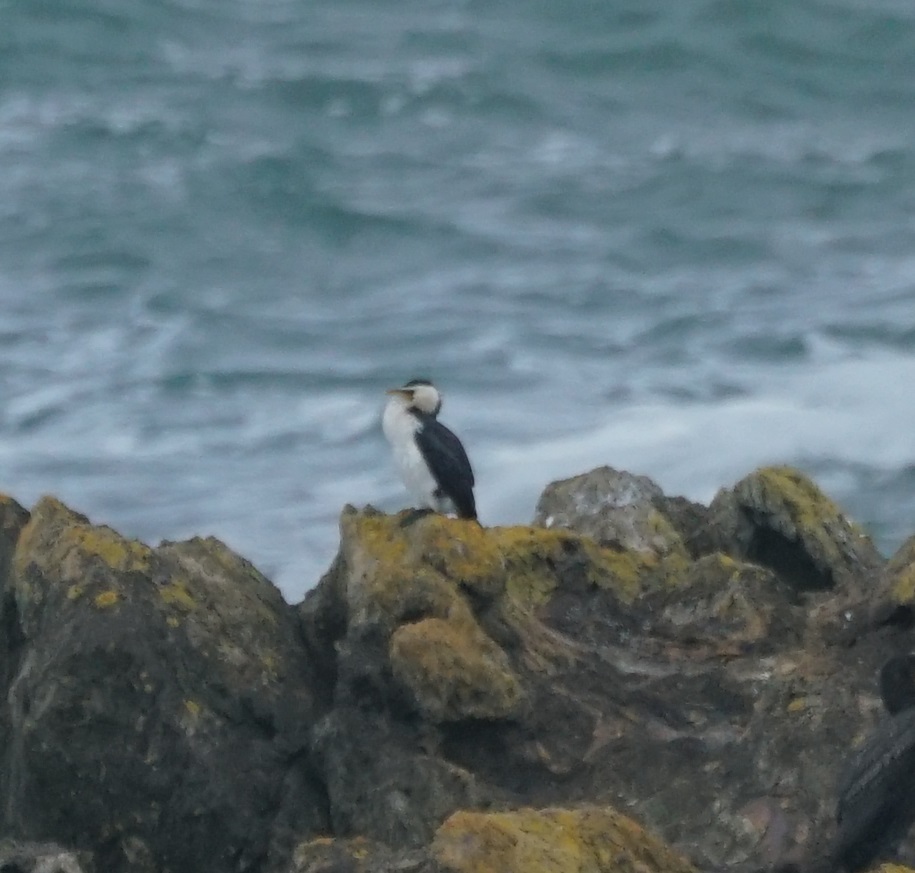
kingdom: Animalia
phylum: Chordata
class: Aves
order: Suliformes
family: Phalacrocoracidae
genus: Microcarbo
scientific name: Microcarbo melanoleucos
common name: Little pied cormorant
